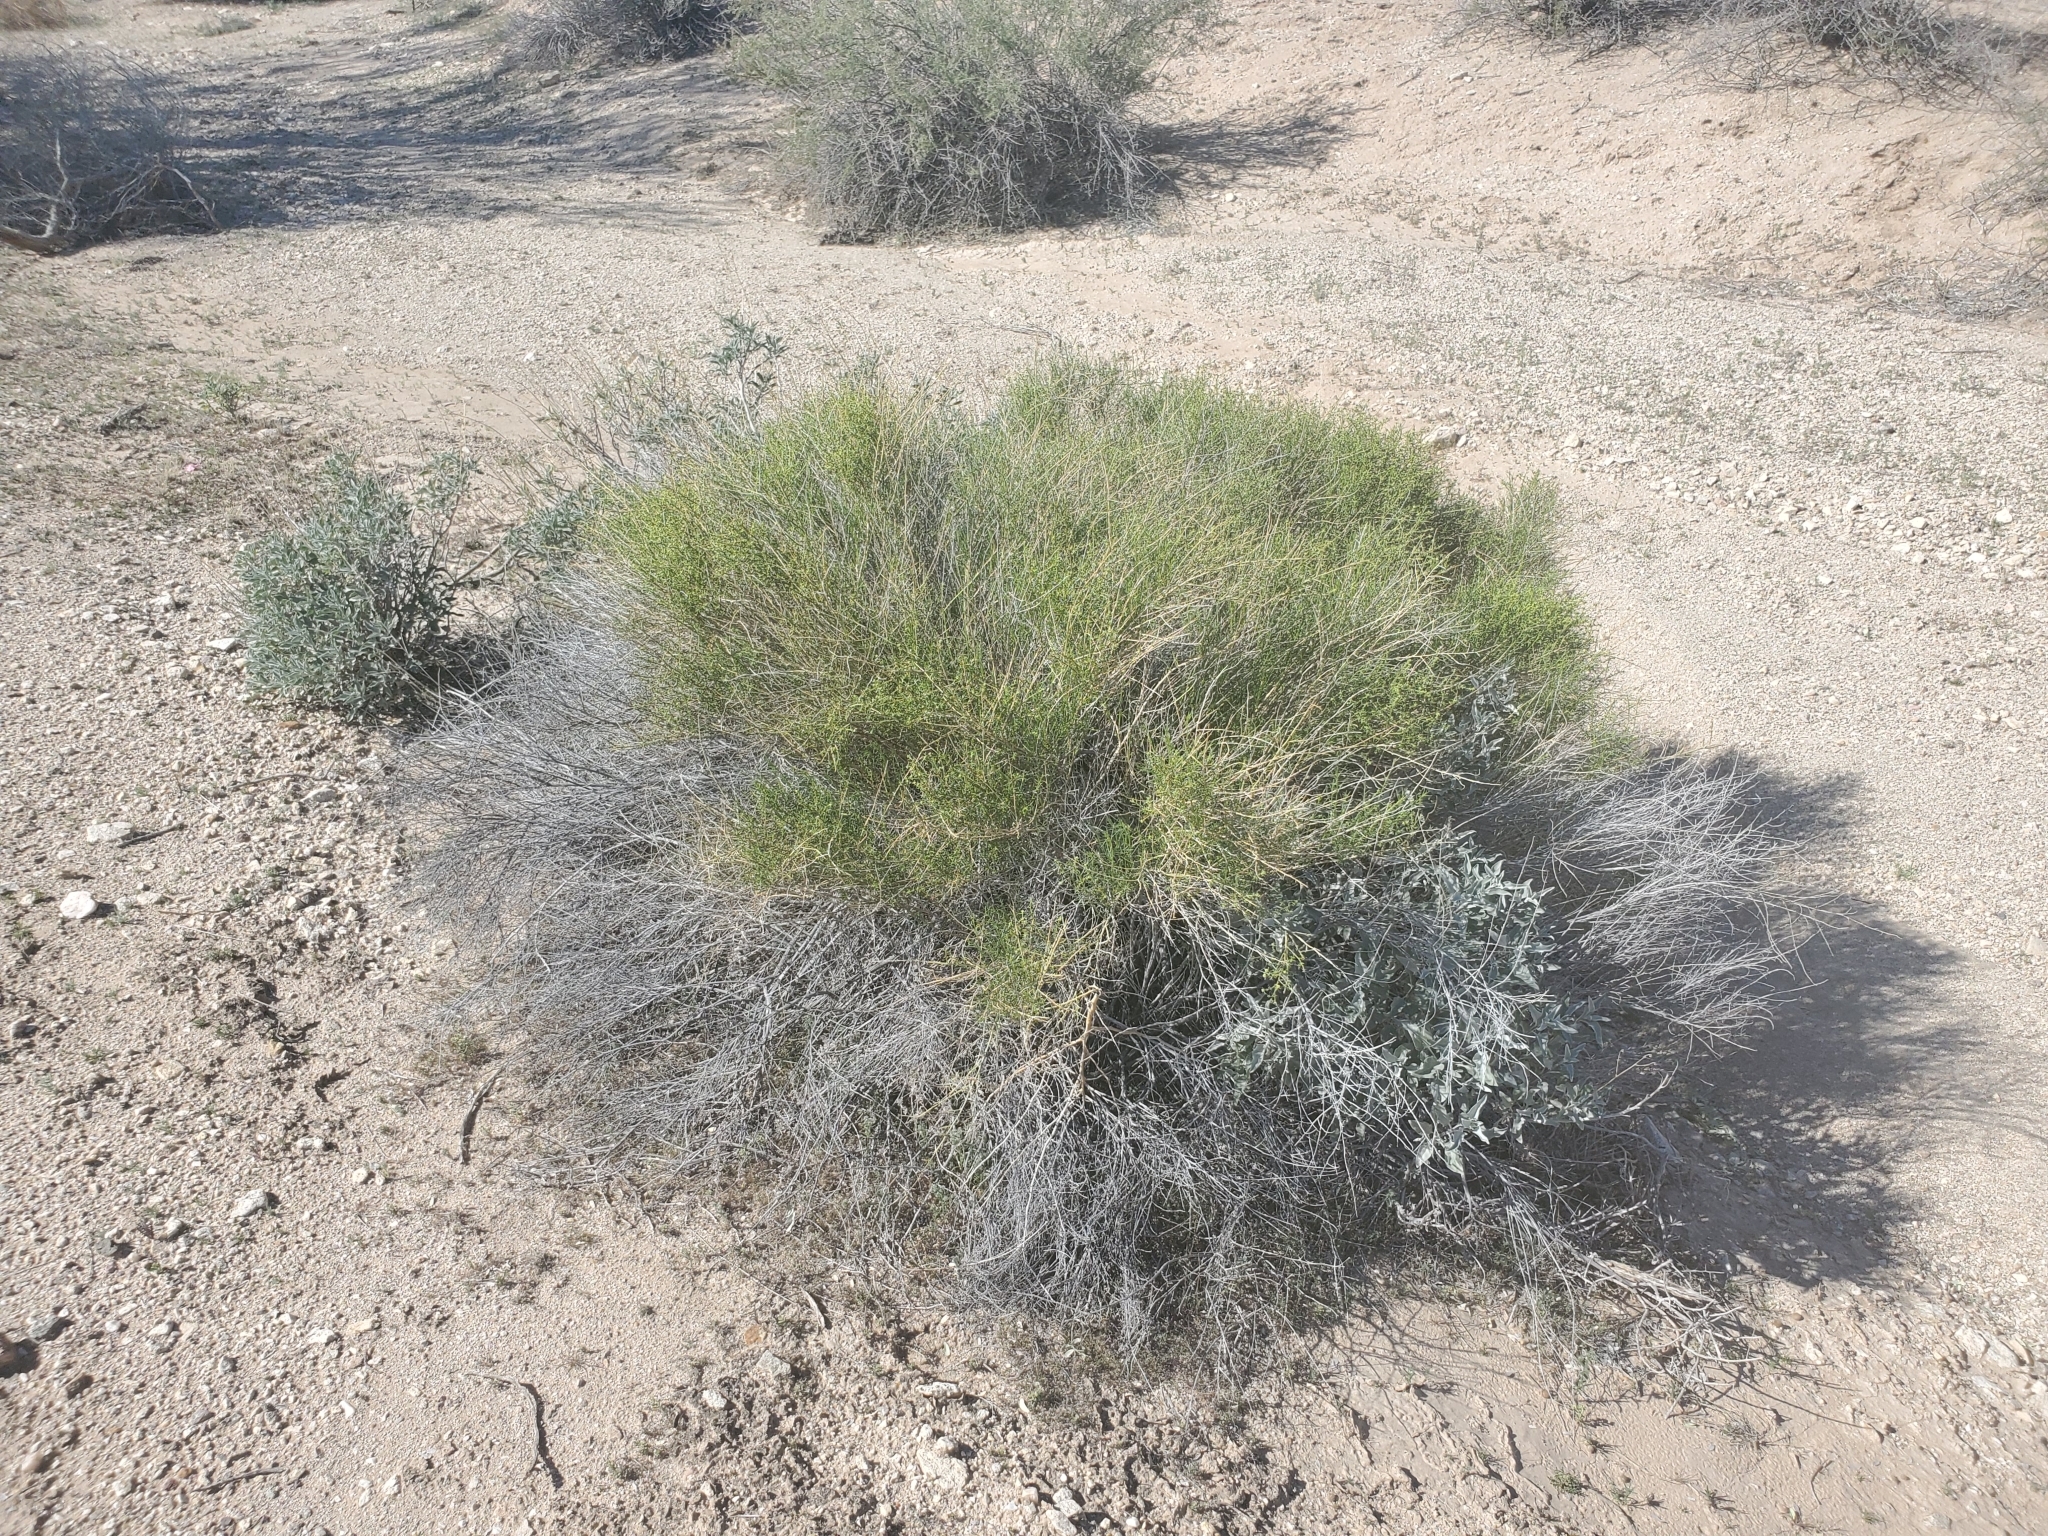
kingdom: Plantae
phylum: Tracheophyta
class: Magnoliopsida
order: Asterales
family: Asteraceae
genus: Ambrosia
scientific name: Ambrosia salsola
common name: Burrobrush
